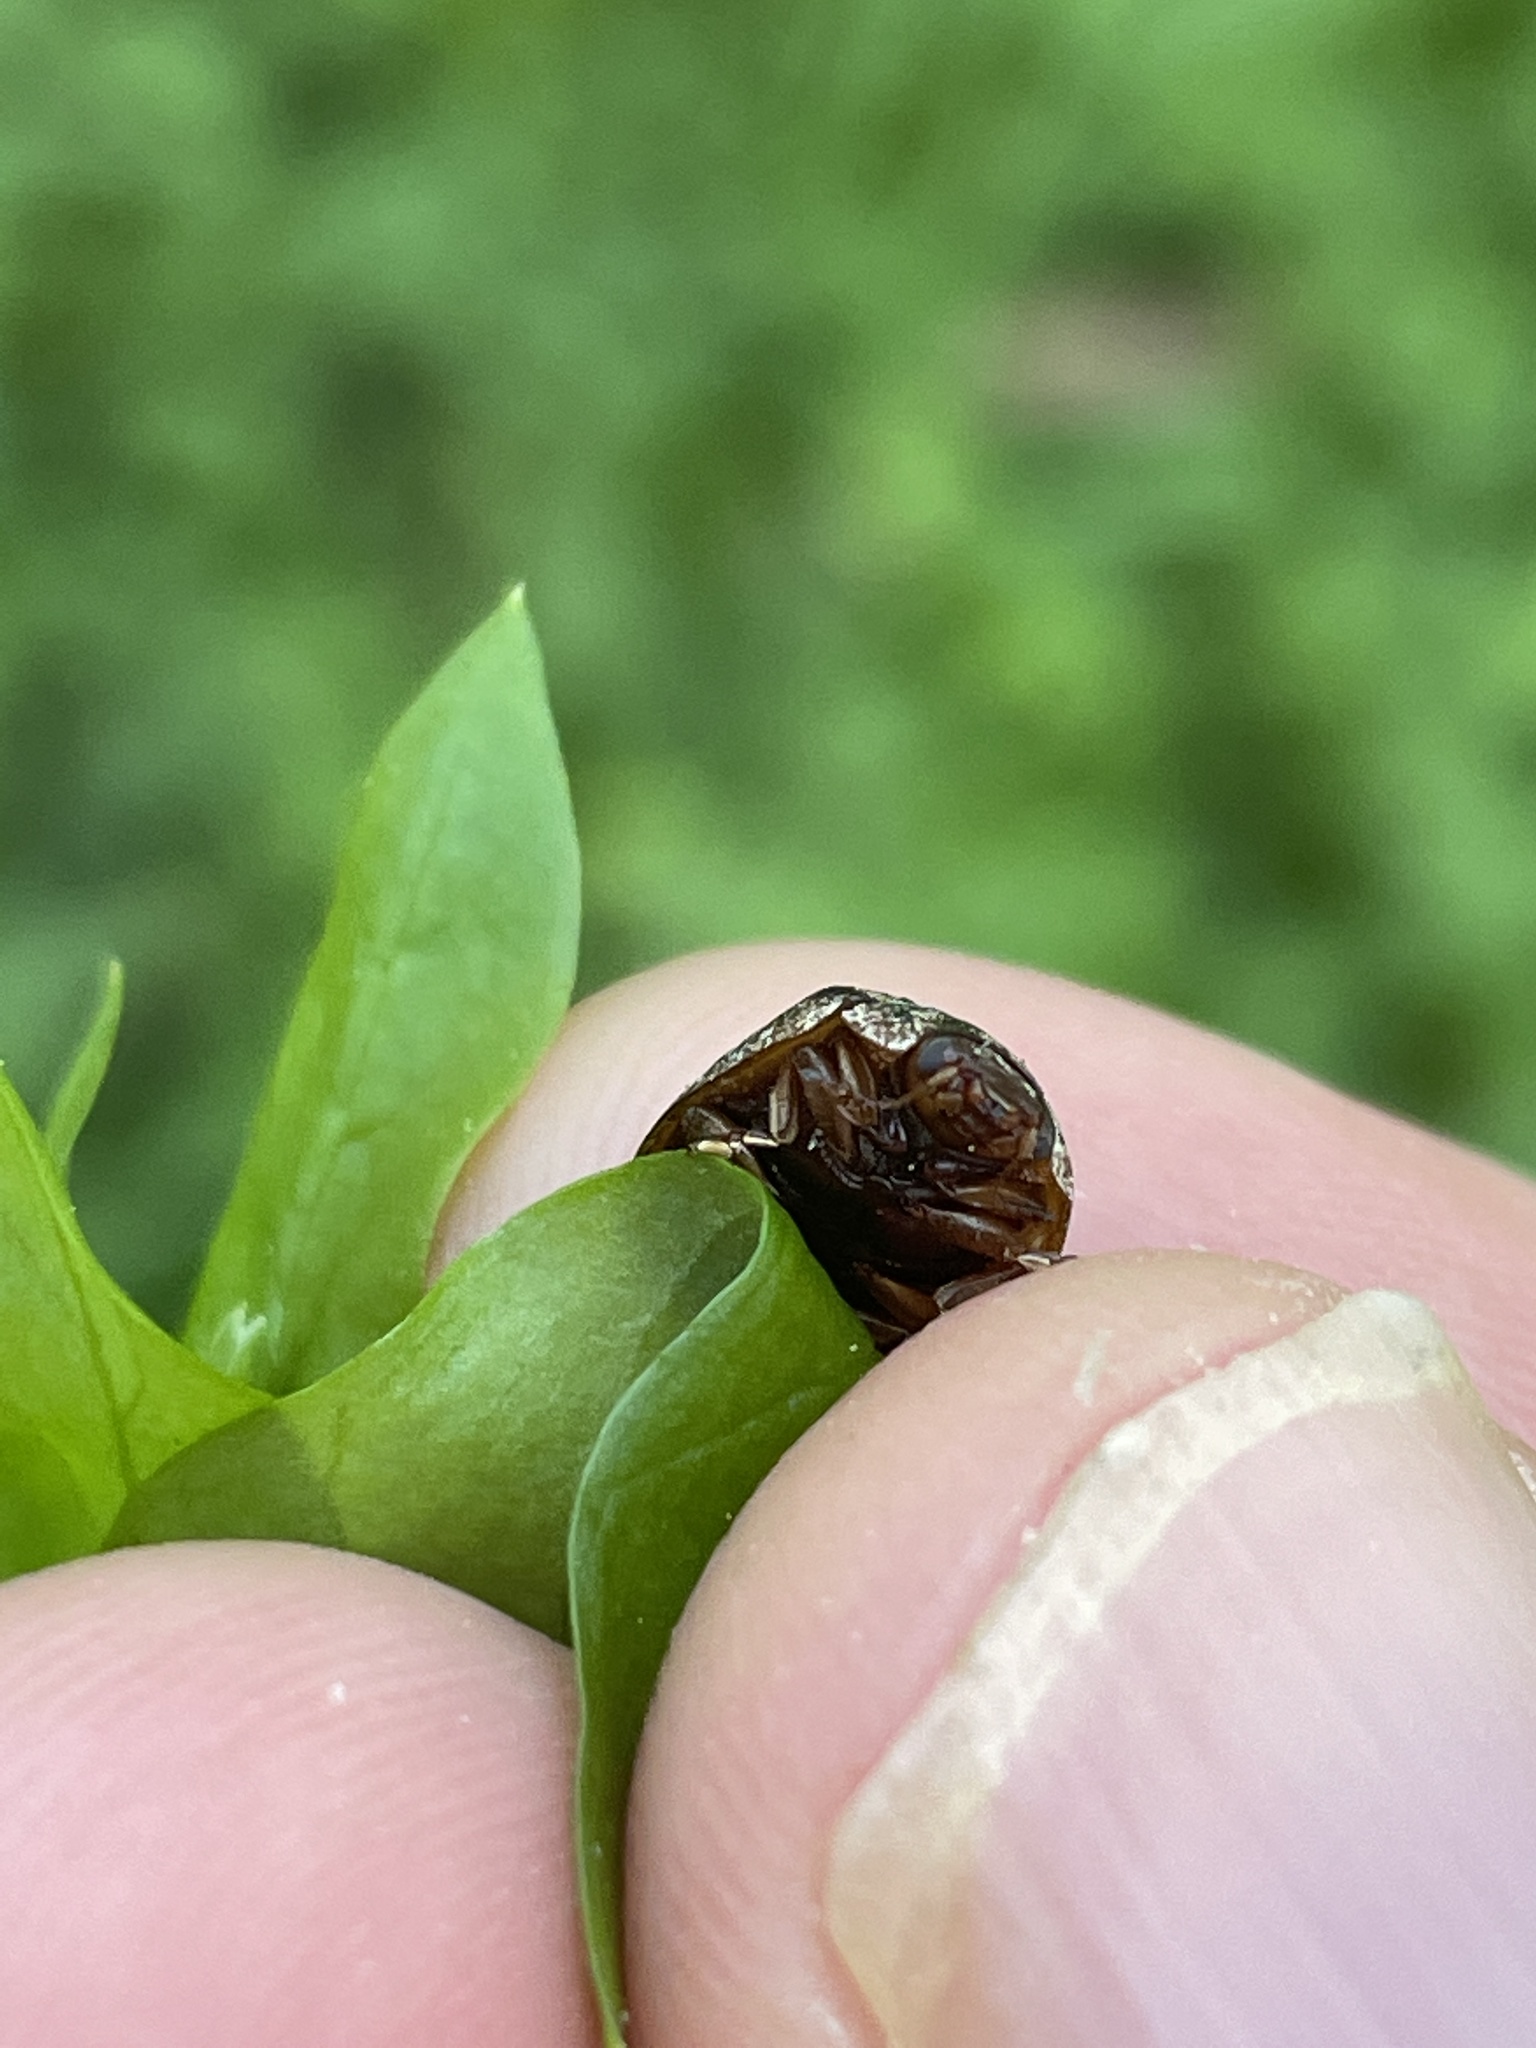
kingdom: Animalia
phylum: Arthropoda
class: Insecta
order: Coleoptera
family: Chrysomelidae
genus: Trachymela
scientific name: Trachymela sloanei
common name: Australian tortoise beetle
